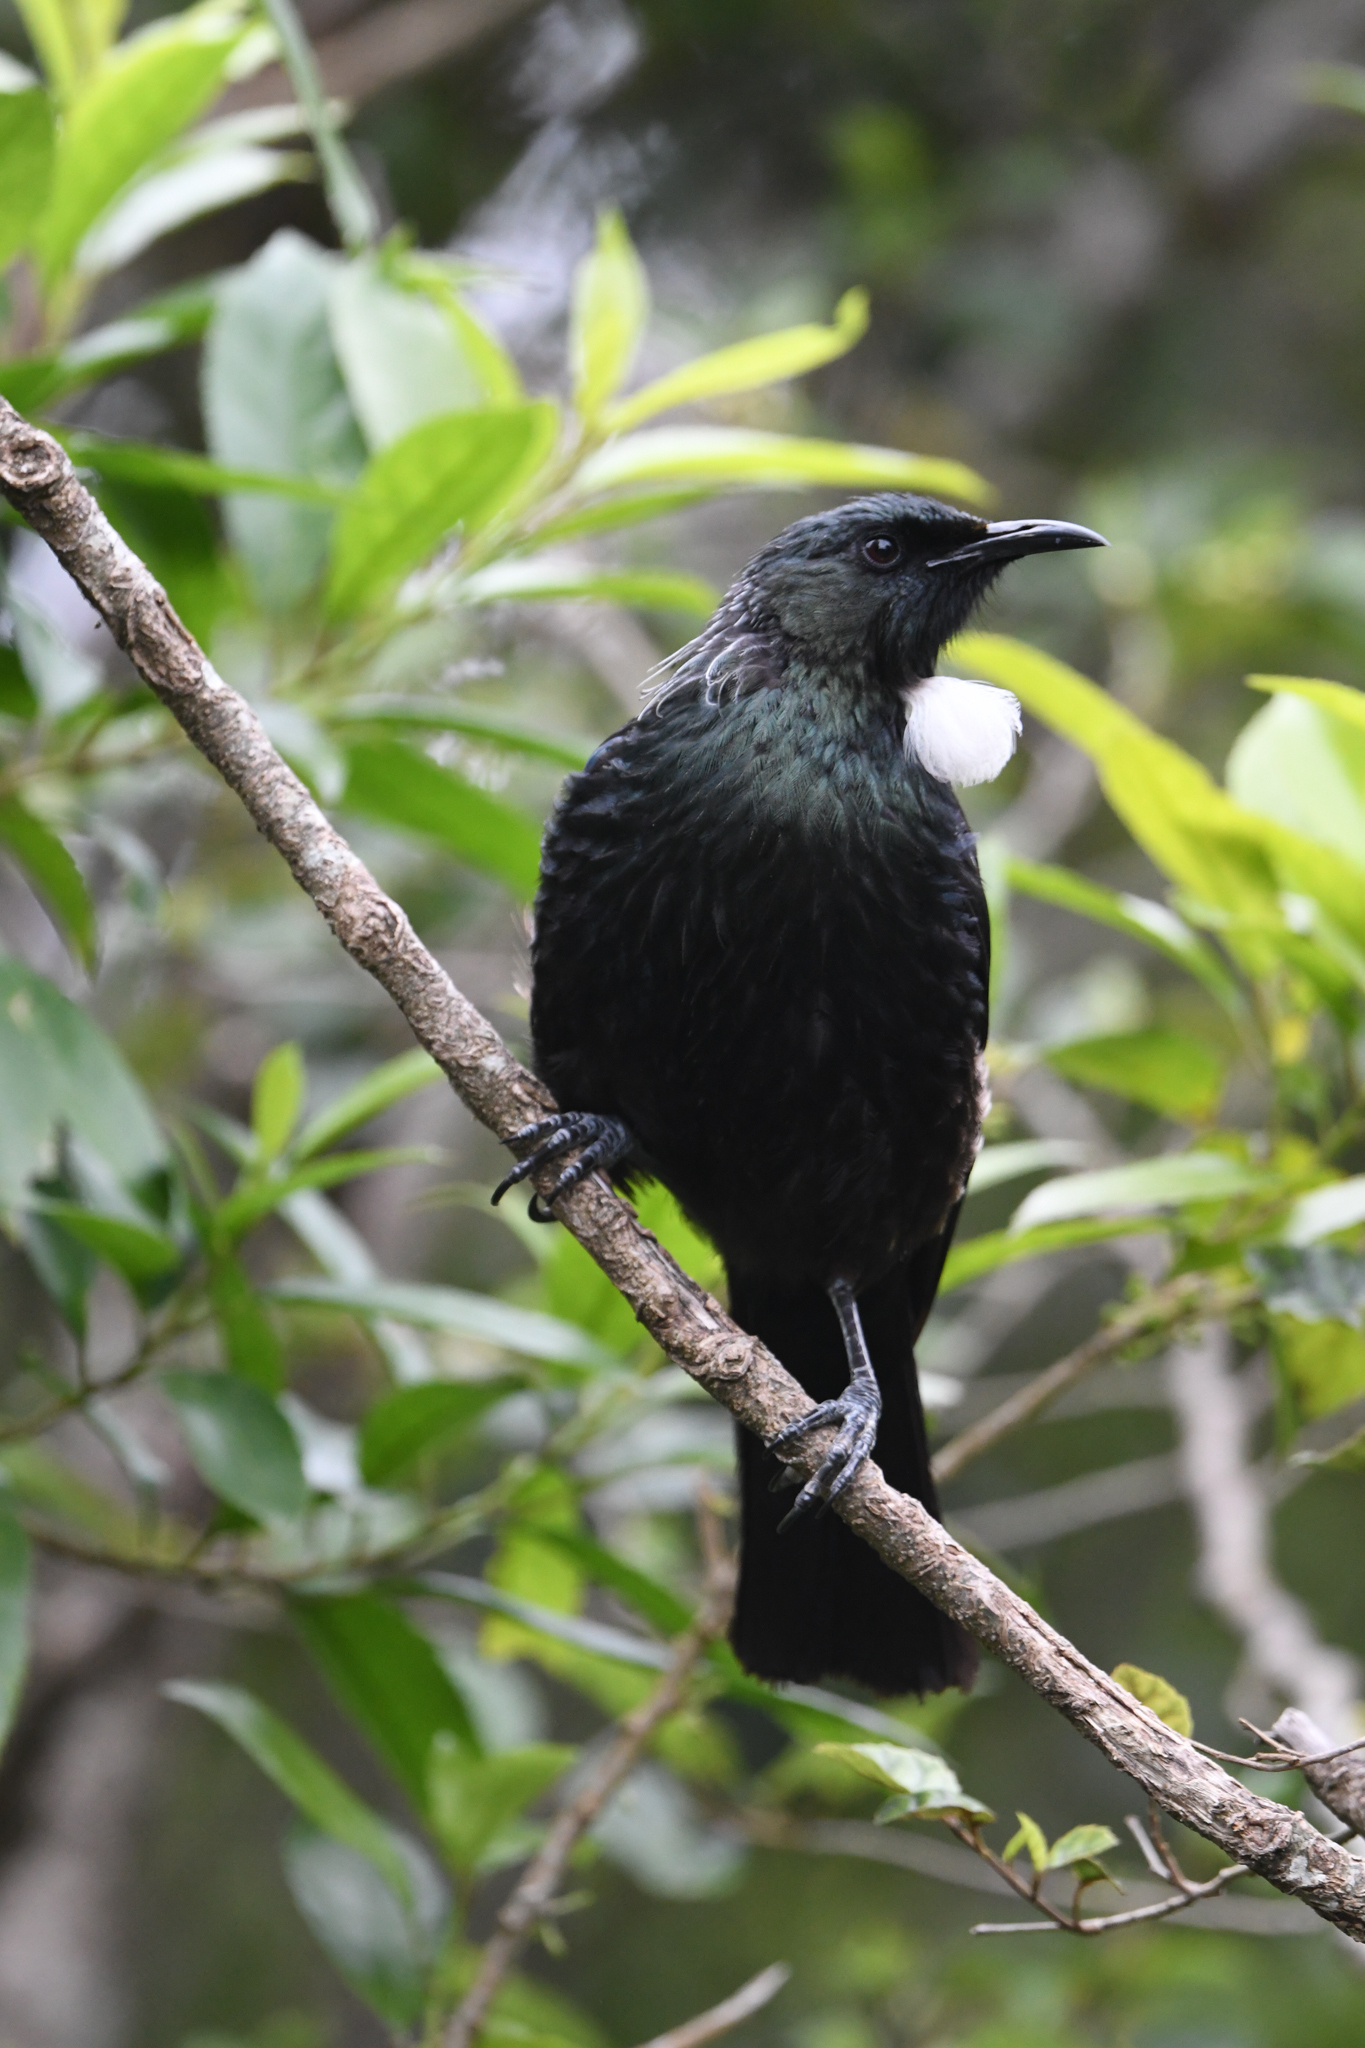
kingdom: Animalia
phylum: Chordata
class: Aves
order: Passeriformes
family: Meliphagidae
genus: Prosthemadera
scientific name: Prosthemadera novaeseelandiae
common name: Tui
